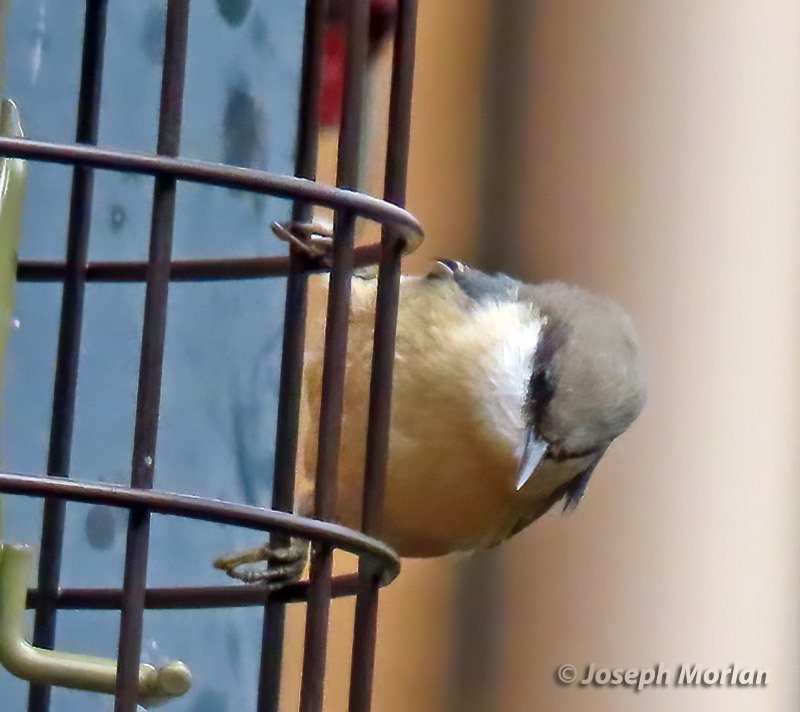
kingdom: Animalia
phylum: Chordata
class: Aves
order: Passeriformes
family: Sittidae
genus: Sitta
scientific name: Sitta pygmaea
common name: Pygmy nuthatch
